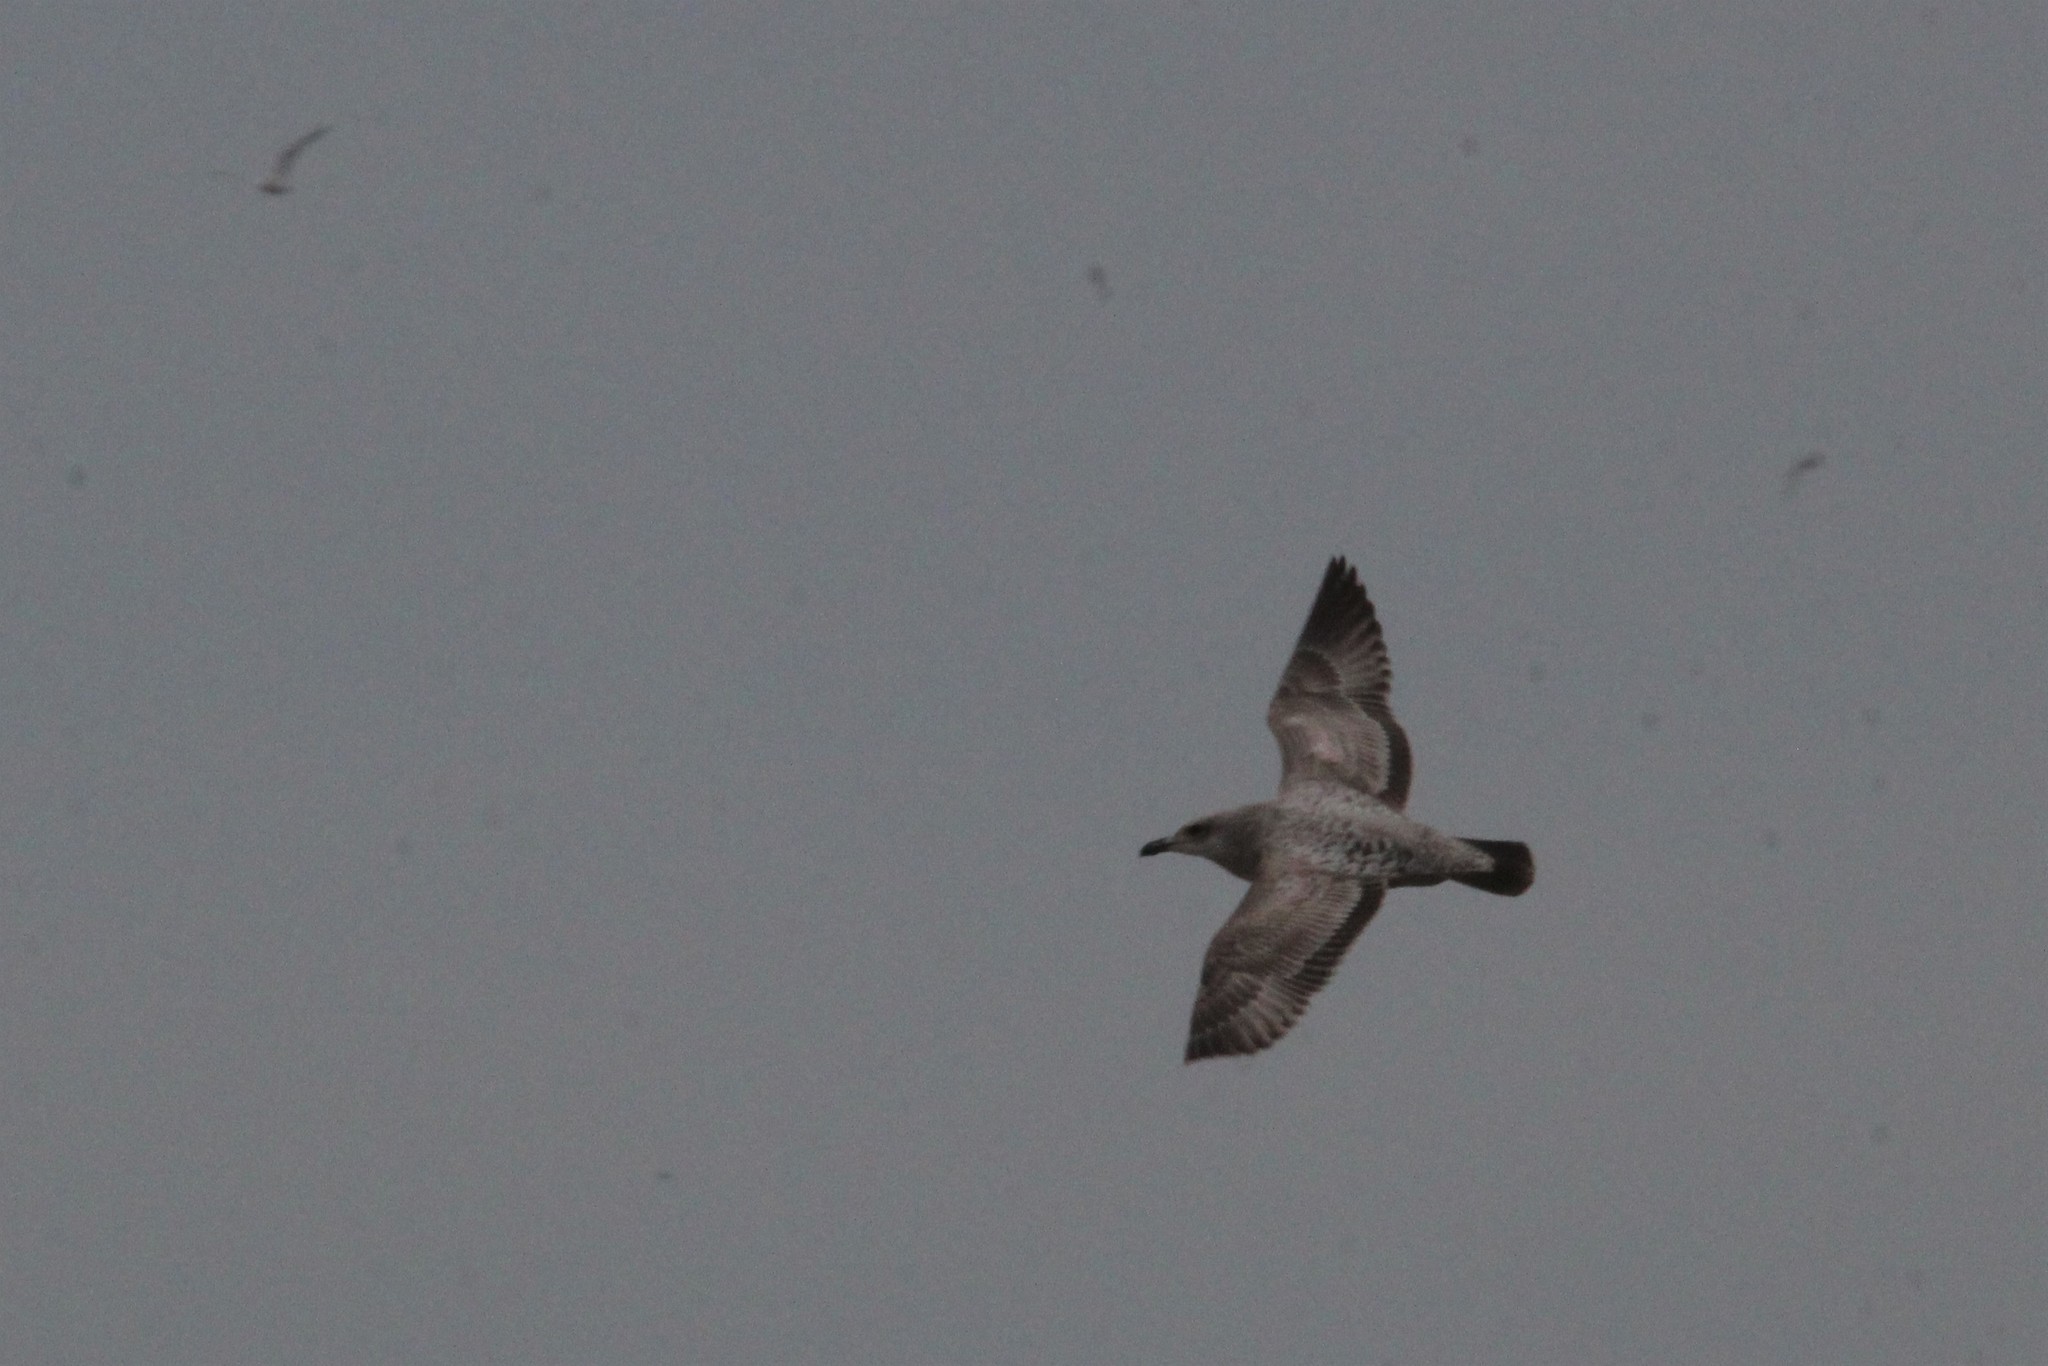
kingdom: Animalia
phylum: Chordata
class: Aves
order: Charadriiformes
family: Laridae
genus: Larus
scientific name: Larus argentatus
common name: Herring gull
